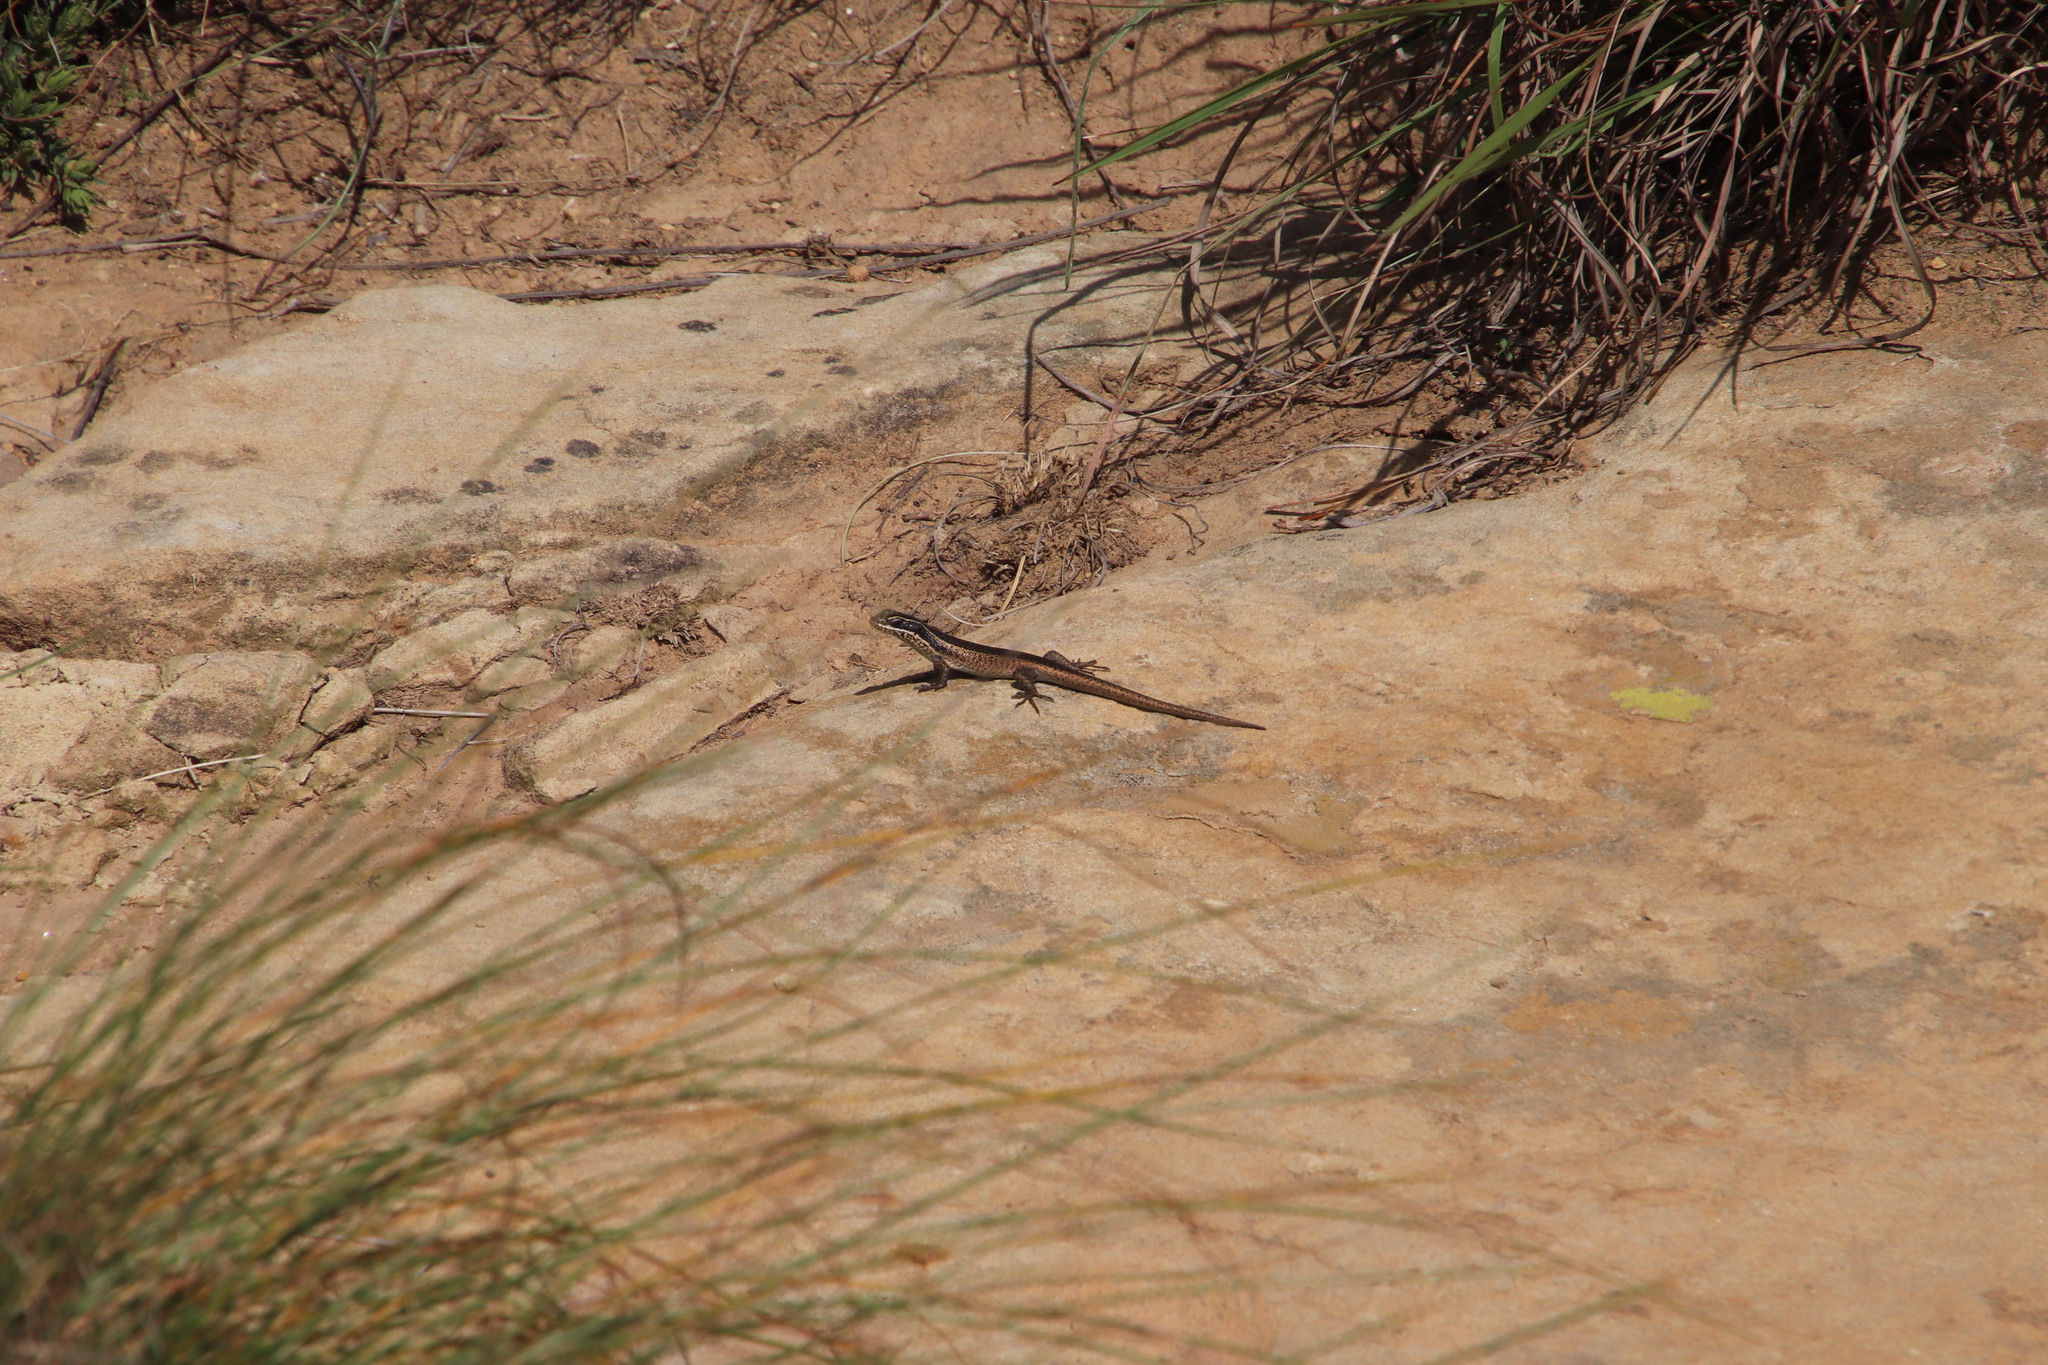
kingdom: Animalia
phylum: Chordata
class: Squamata
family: Scincidae
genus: Trachylepis
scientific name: Trachylepis punctatissima
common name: Montane speckled skink
